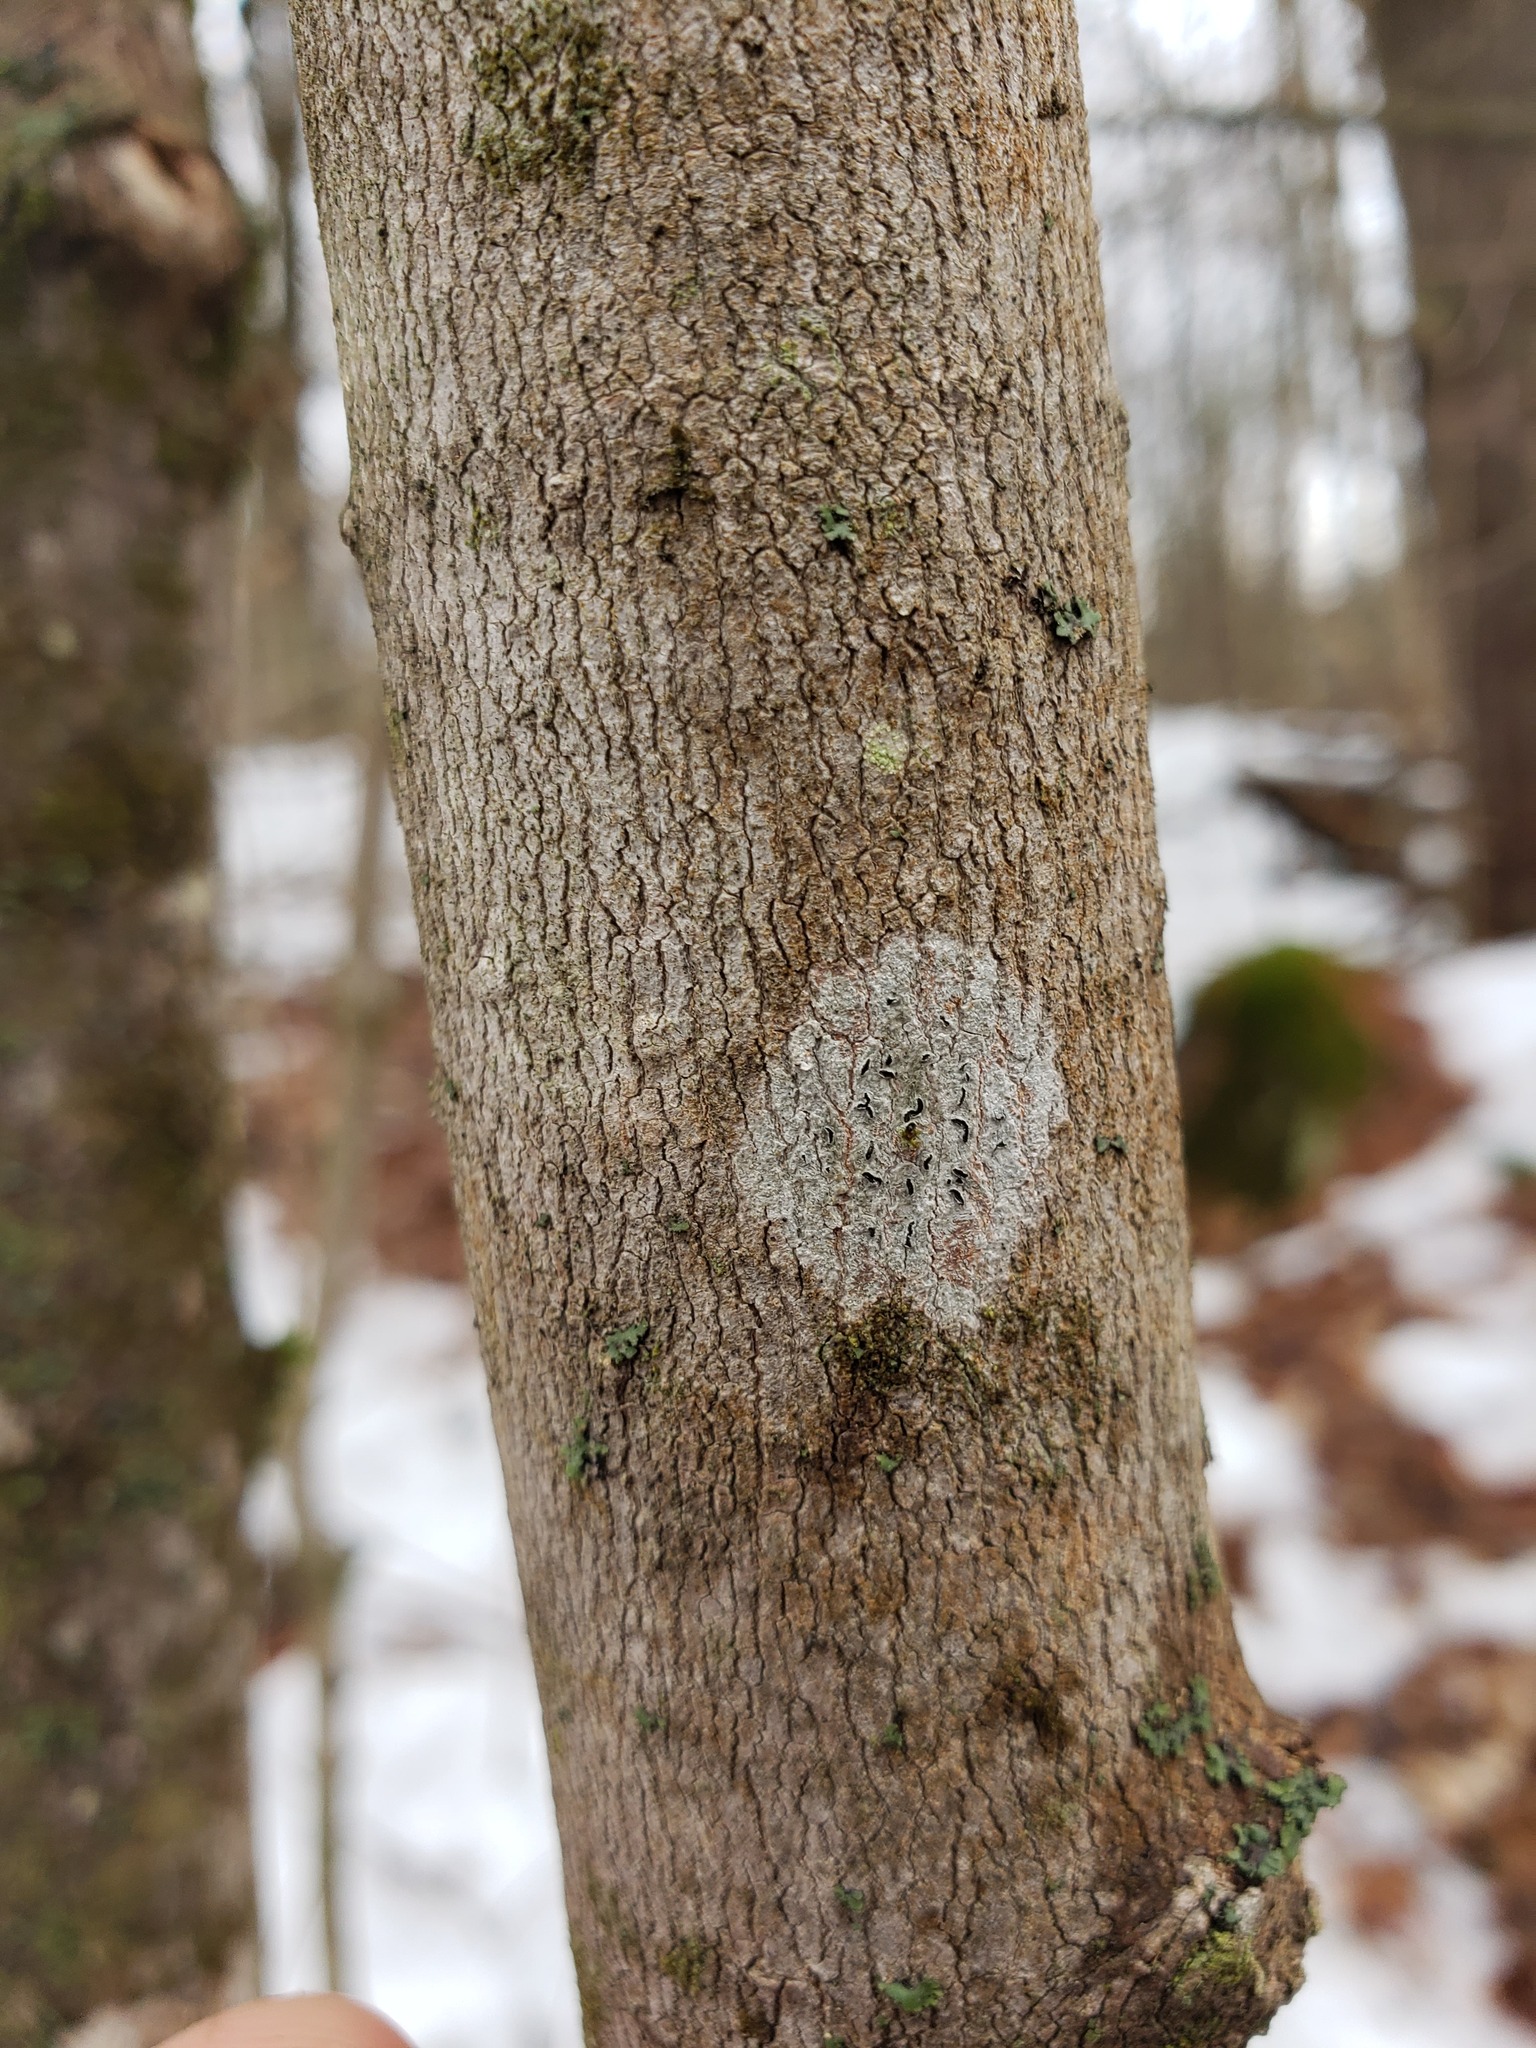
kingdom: Fungi
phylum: Ascomycota
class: Lecanoromycetes
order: Ostropales
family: Graphidaceae
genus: Graphis
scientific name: Graphis scripta
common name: Script lichen
